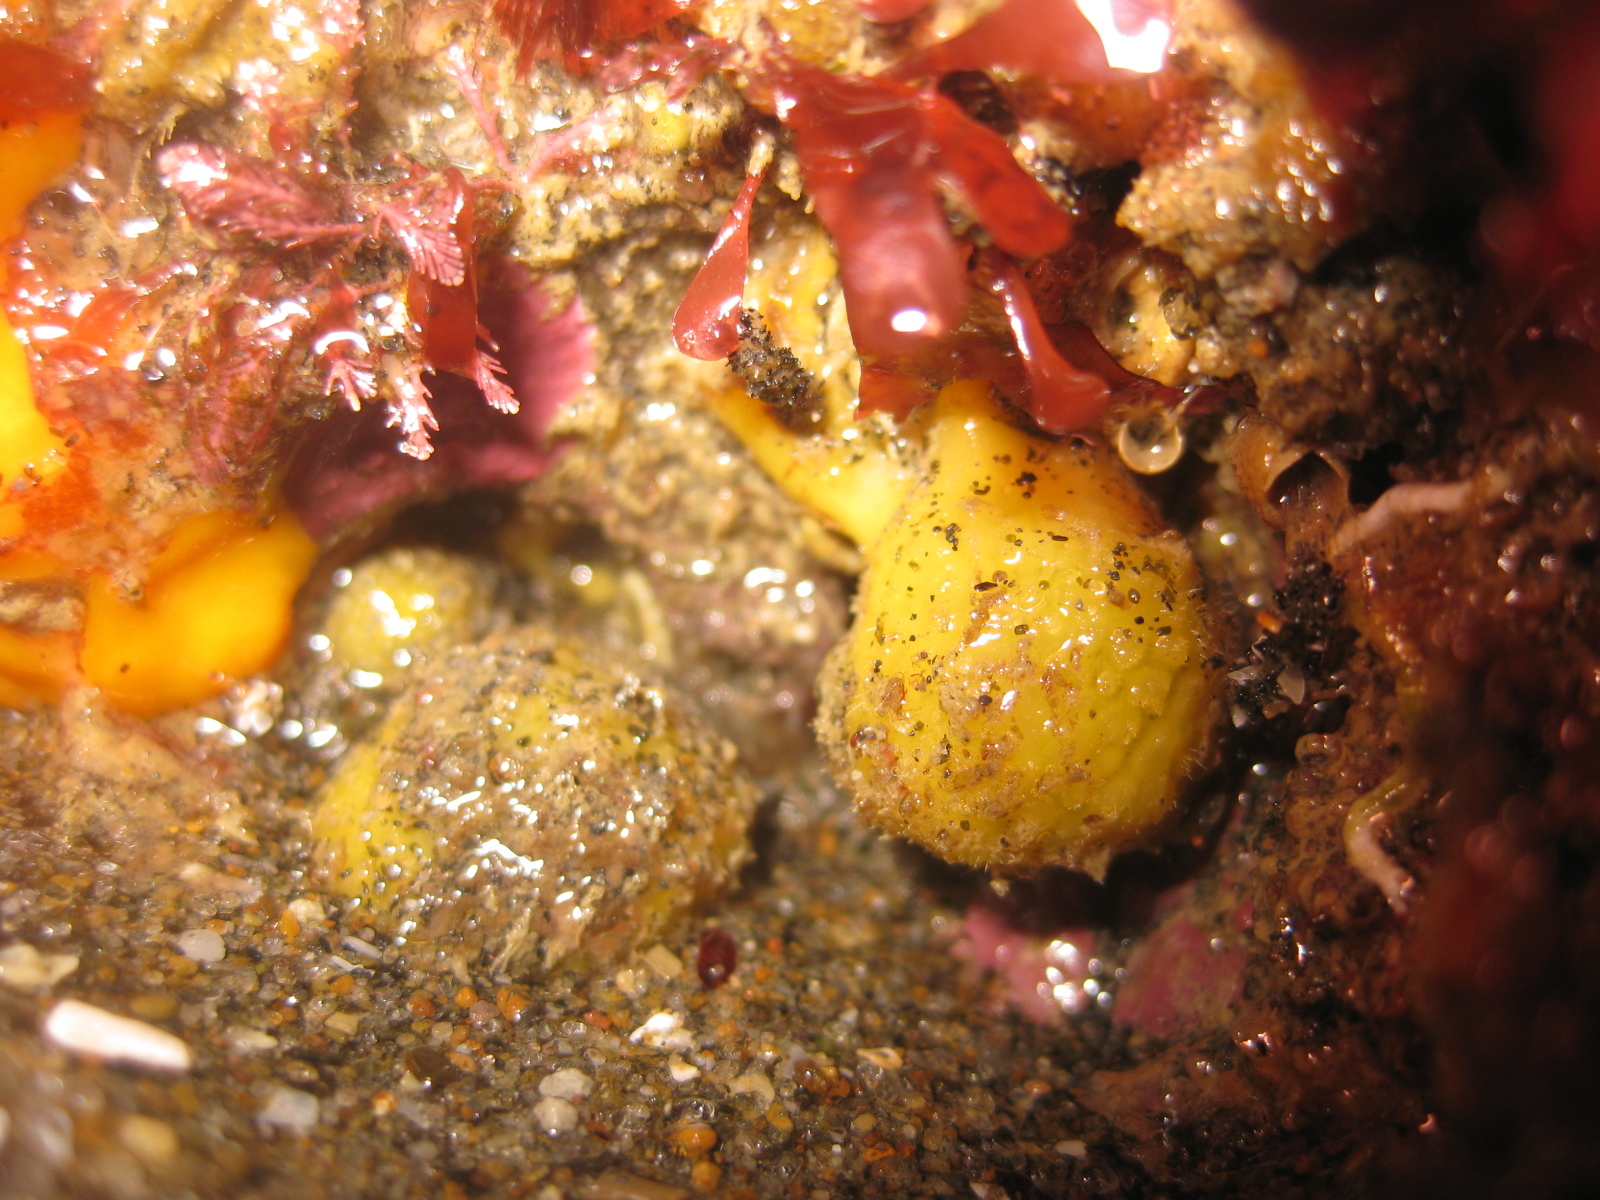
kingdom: Animalia
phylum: Porifera
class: Demospongiae
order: Tethyida
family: Tethyidae
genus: Tethya
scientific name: Tethya stolonifera
